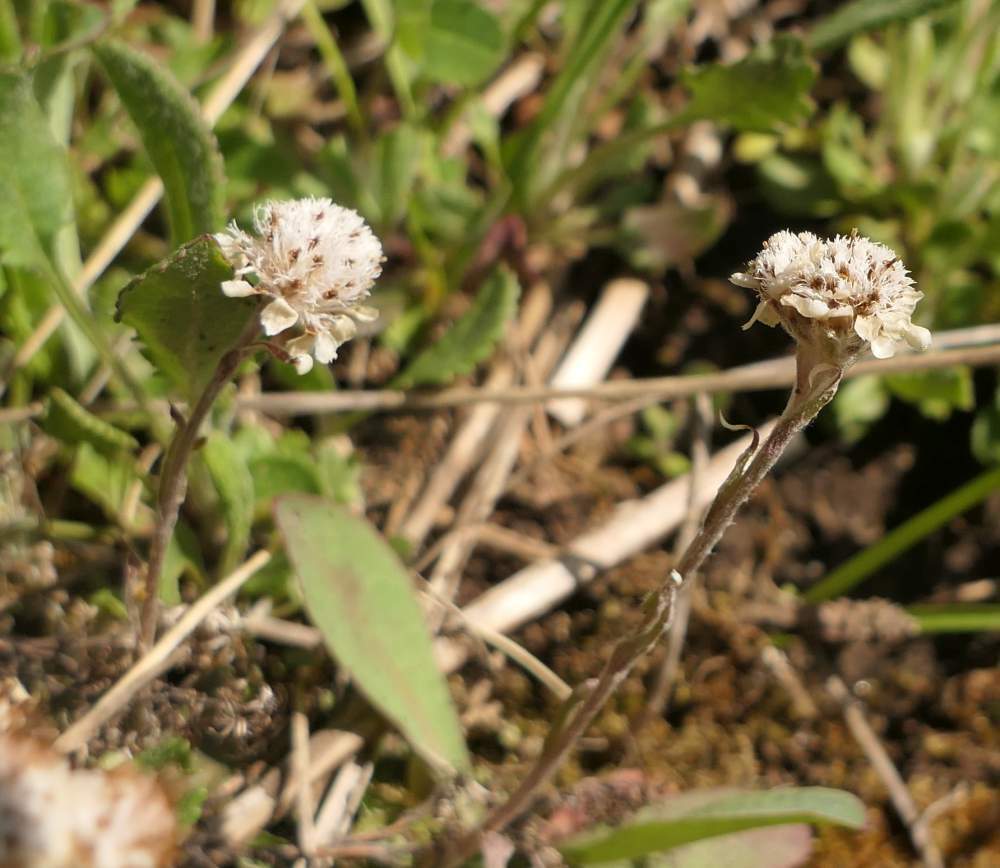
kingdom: Plantae
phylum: Tracheophyta
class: Magnoliopsida
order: Asterales
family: Asteraceae
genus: Antennaria
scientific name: Antennaria neglecta
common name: Field pussytoes
